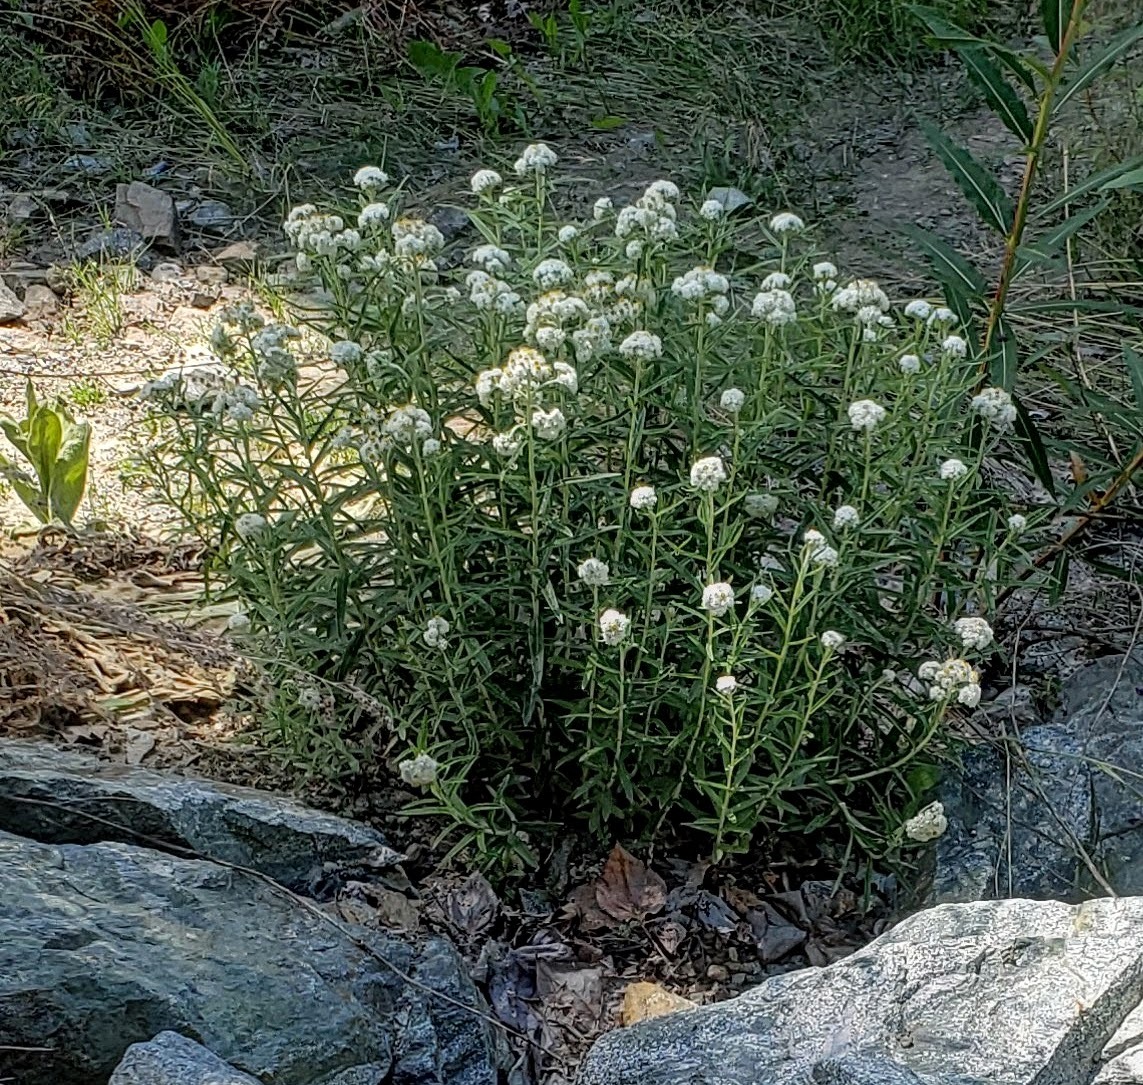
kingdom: Plantae
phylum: Tracheophyta
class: Magnoliopsida
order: Asterales
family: Asteraceae
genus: Anaphalis
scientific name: Anaphalis margaritacea
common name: Pearly everlasting
